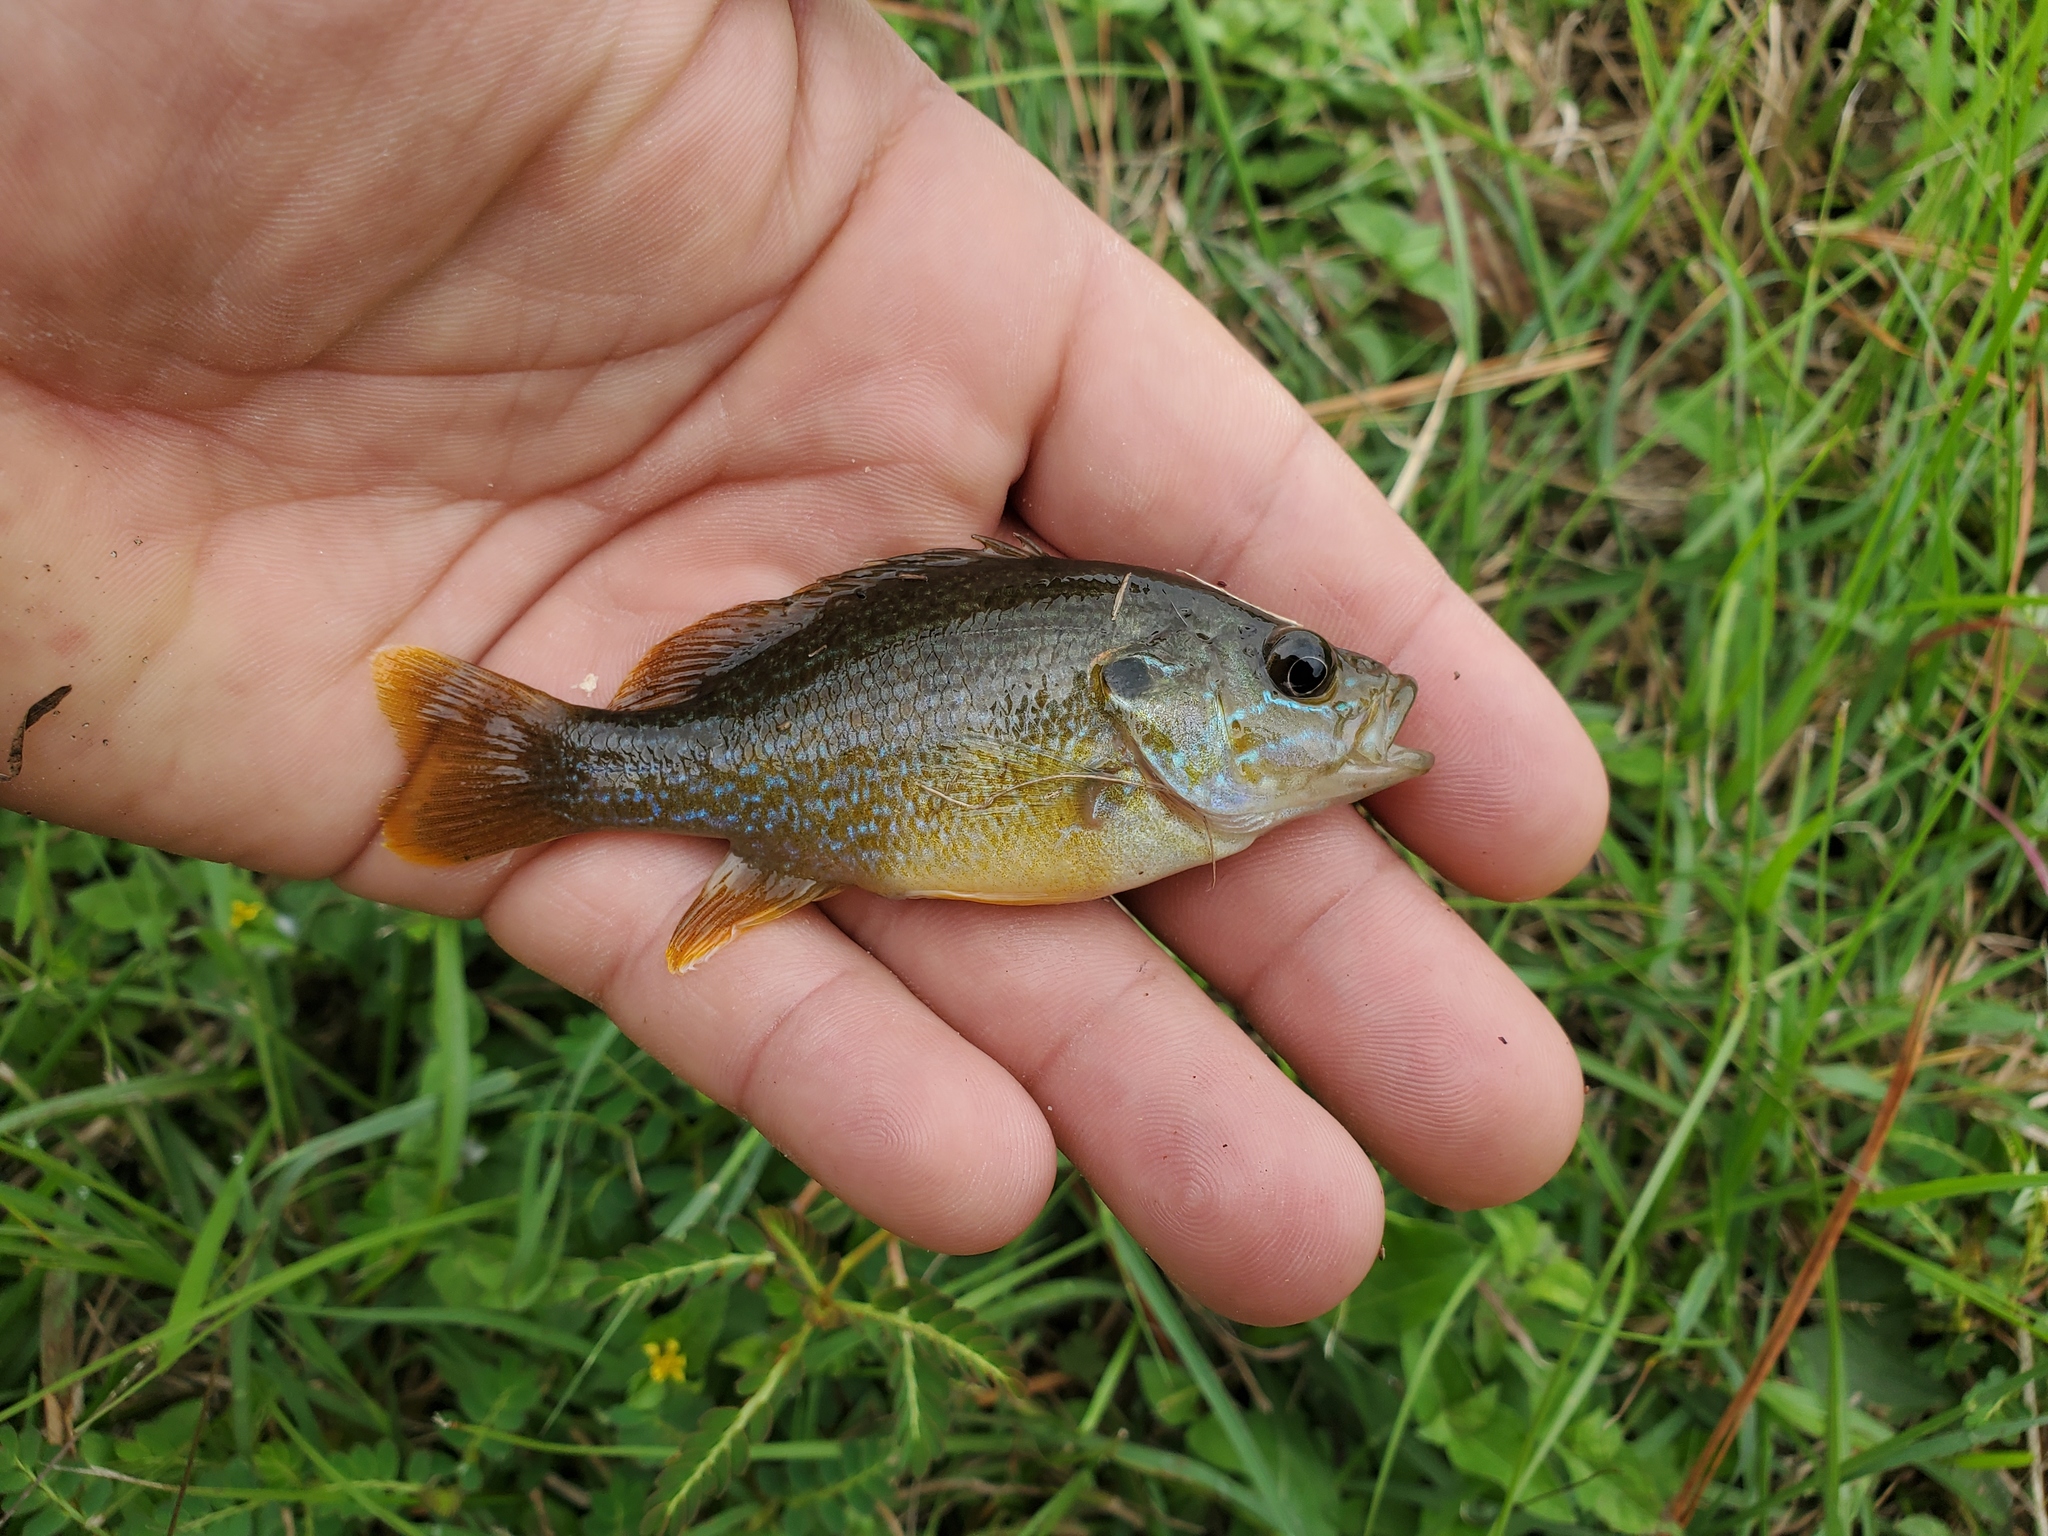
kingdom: Animalia
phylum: Chordata
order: Perciformes
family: Centrarchidae
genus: Lepomis
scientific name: Lepomis cyanellus
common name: Green sunfish
